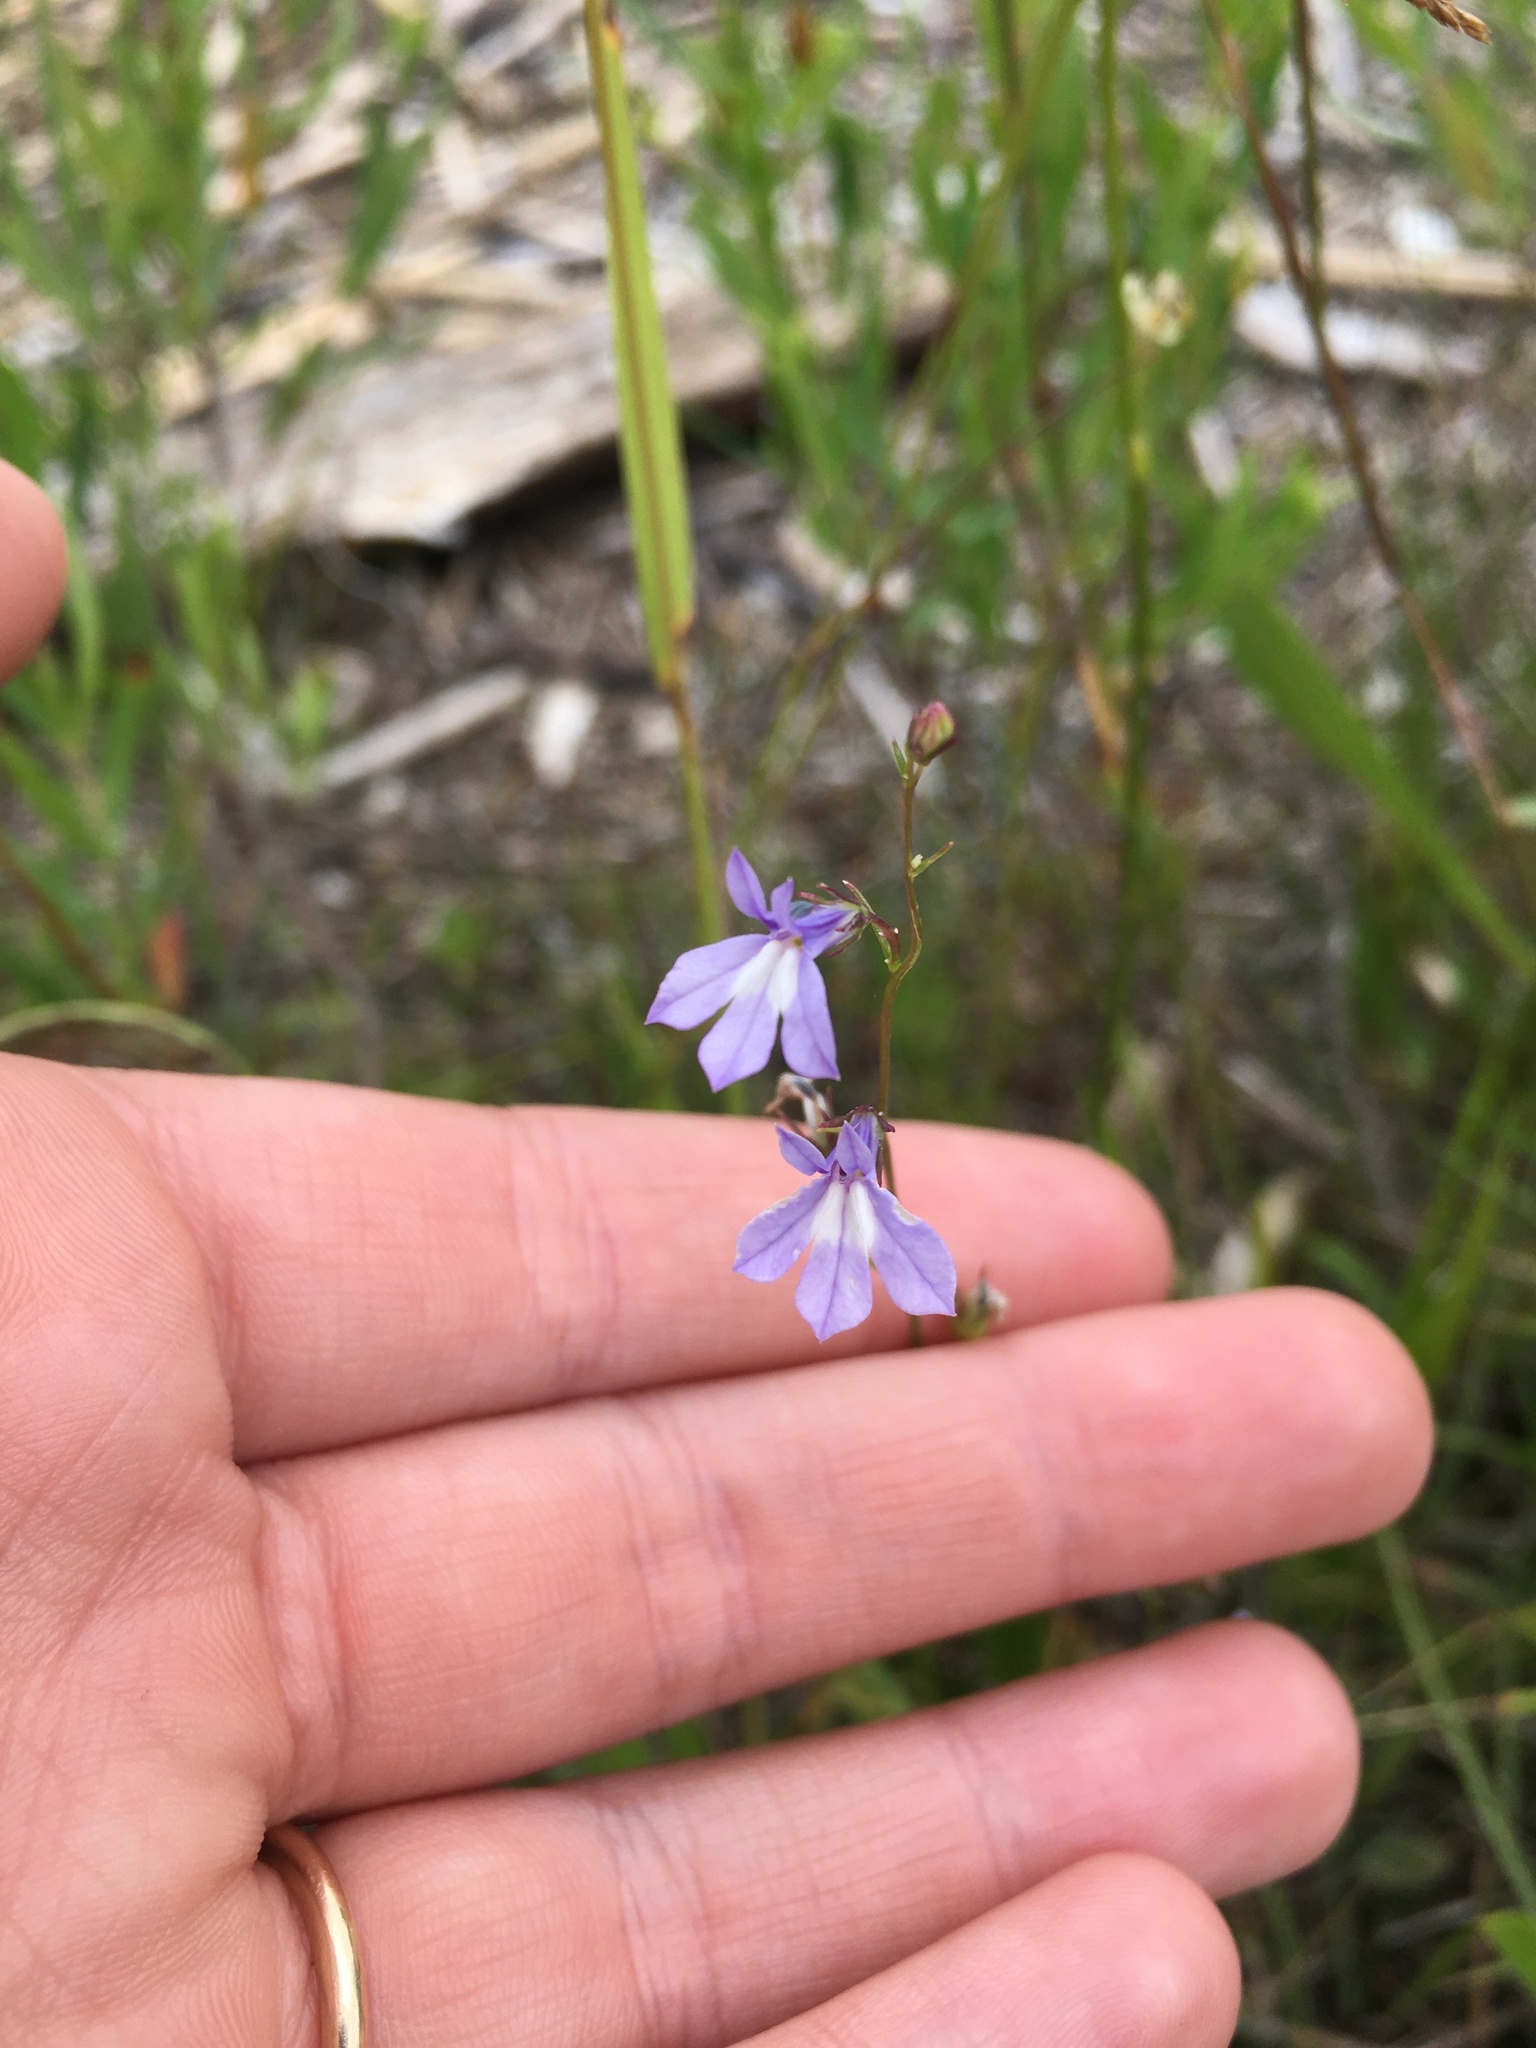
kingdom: Plantae
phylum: Tracheophyta
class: Magnoliopsida
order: Asterales
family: Campanulaceae
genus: Lobelia
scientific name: Lobelia kalmii
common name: Kalm's lobelia
